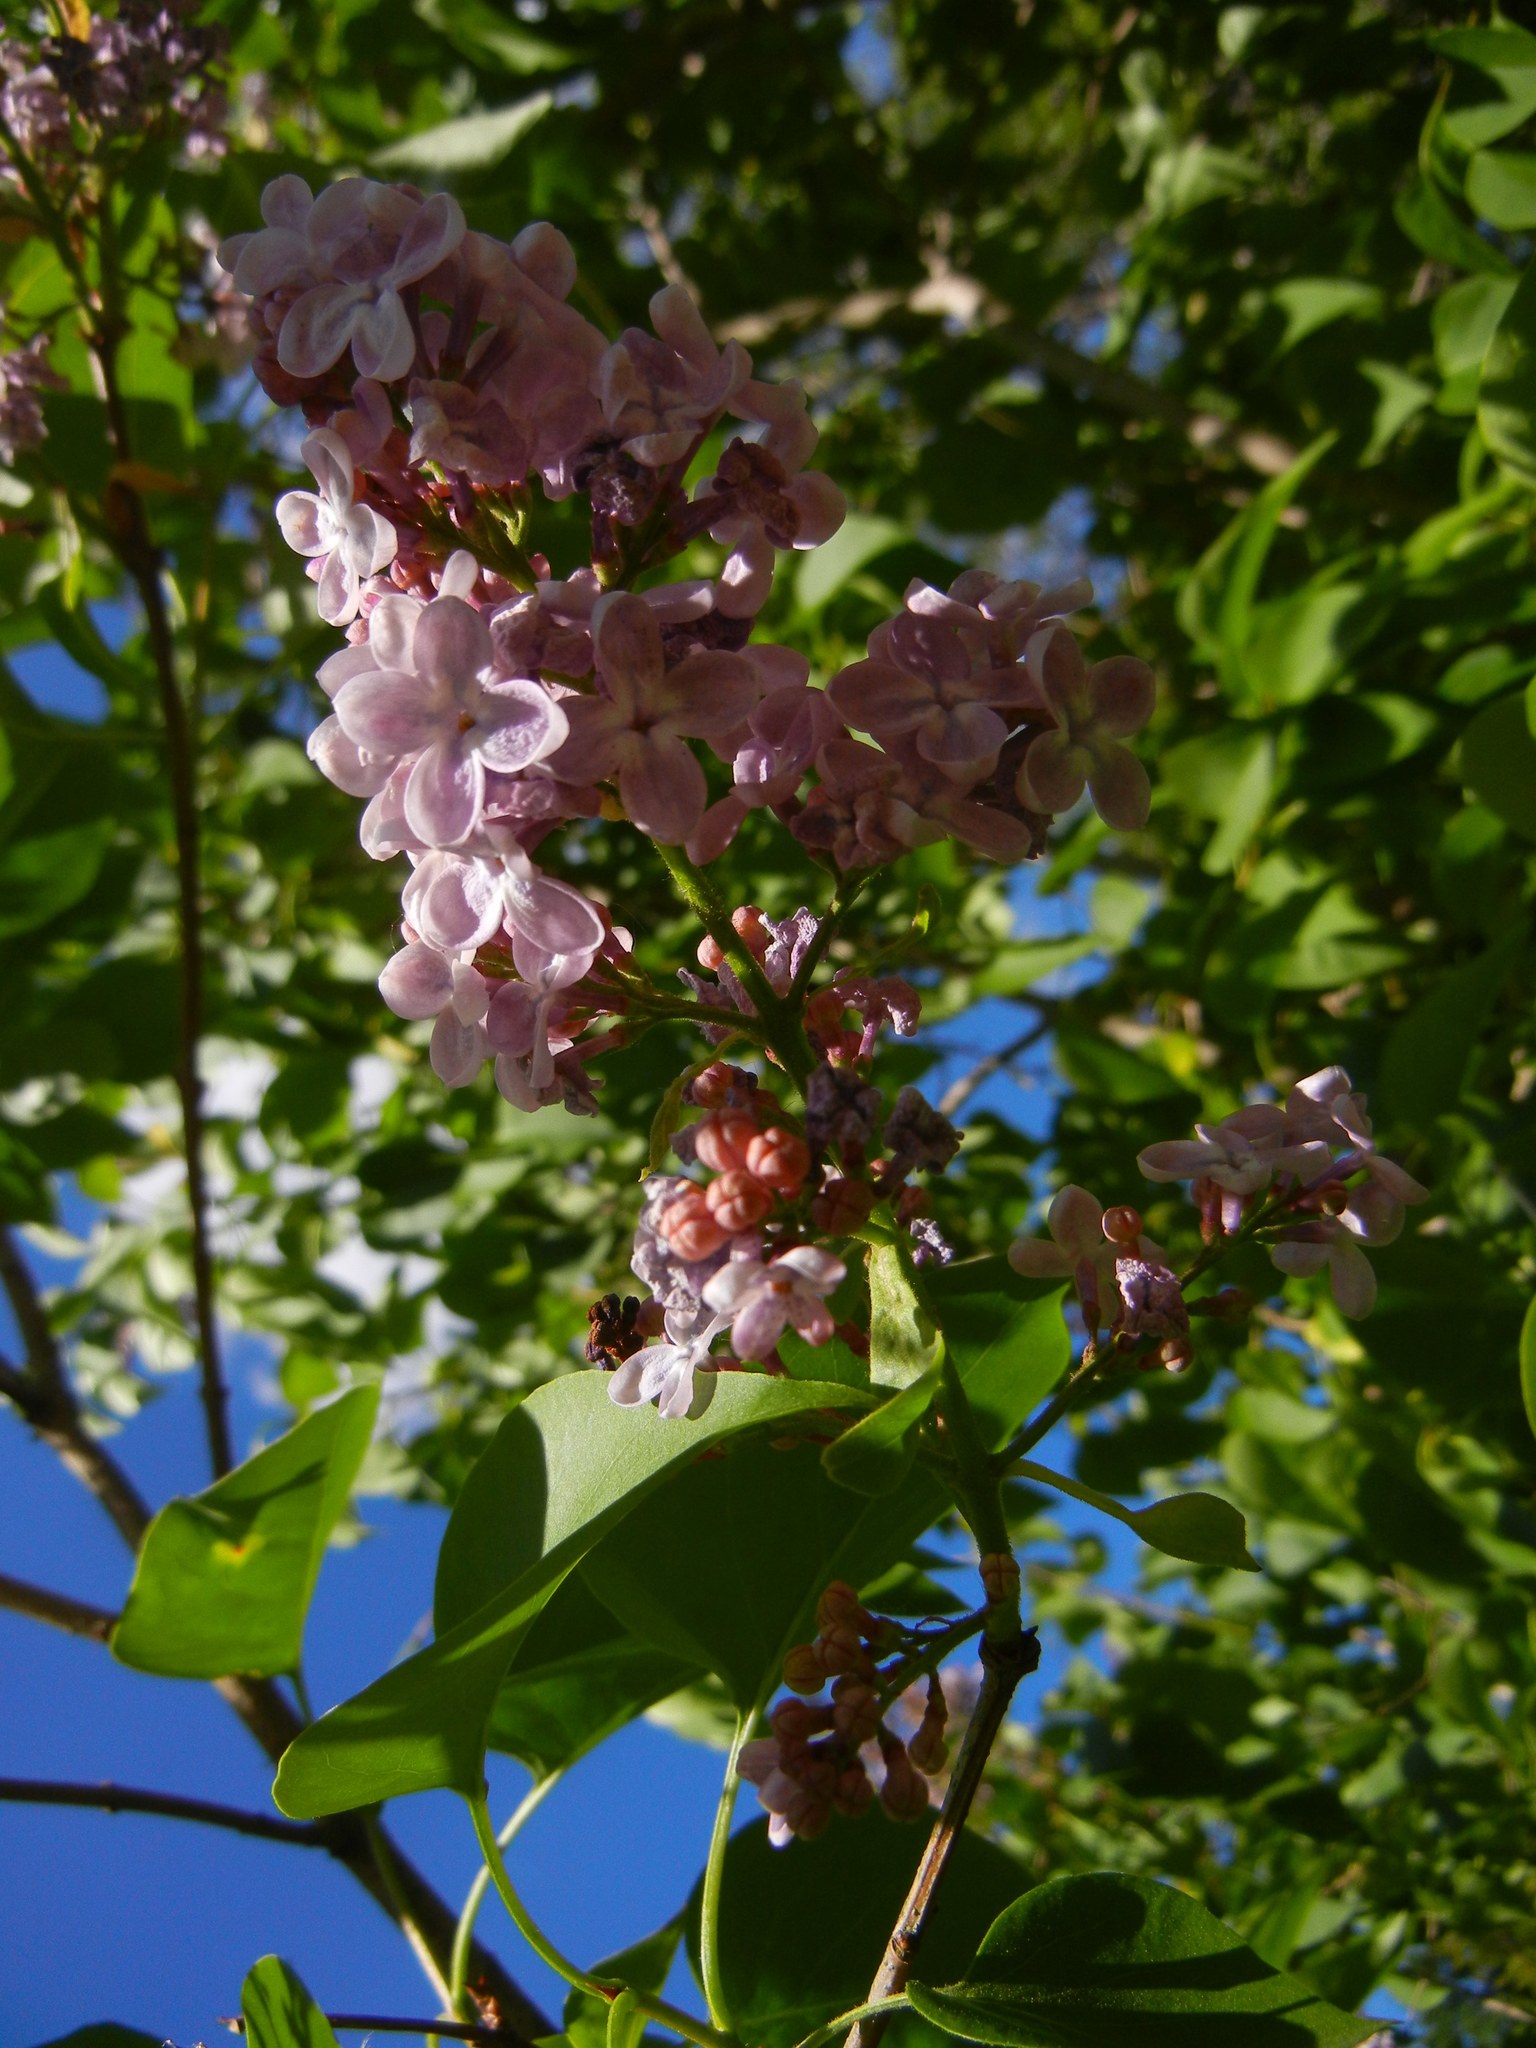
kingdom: Plantae
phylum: Tracheophyta
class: Magnoliopsida
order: Lamiales
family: Oleaceae
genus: Syringa
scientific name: Syringa vulgaris
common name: Common lilac
